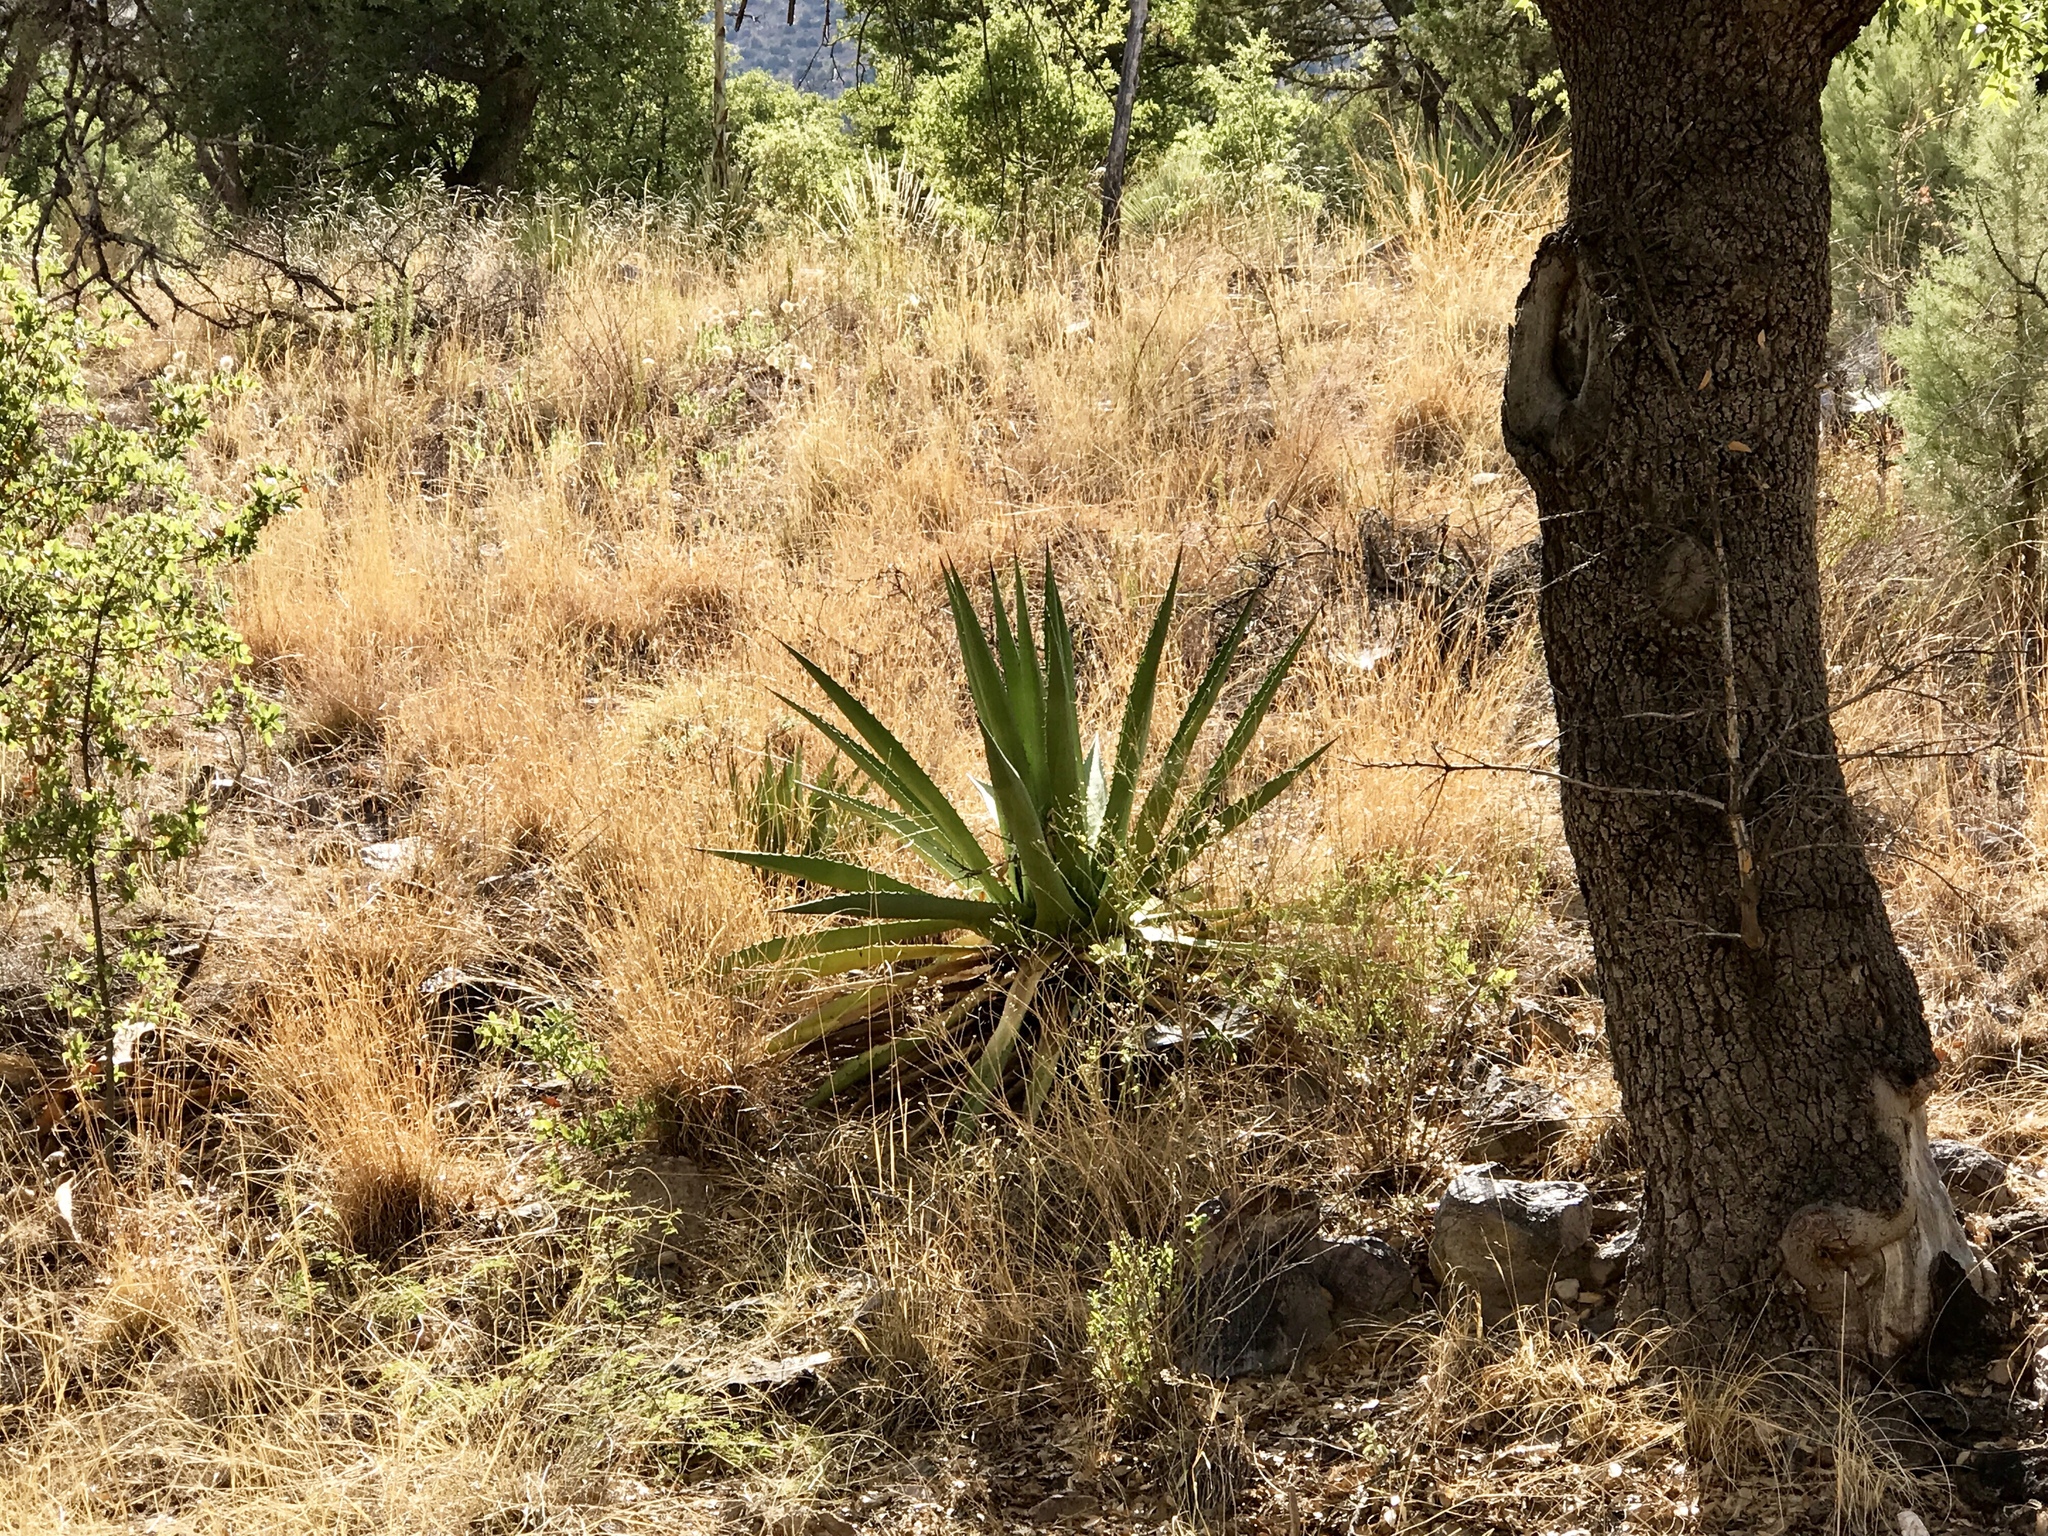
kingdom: Plantae
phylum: Tracheophyta
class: Liliopsida
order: Asparagales
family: Asparagaceae
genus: Agave
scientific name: Agave palmeri
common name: Palmer agave
